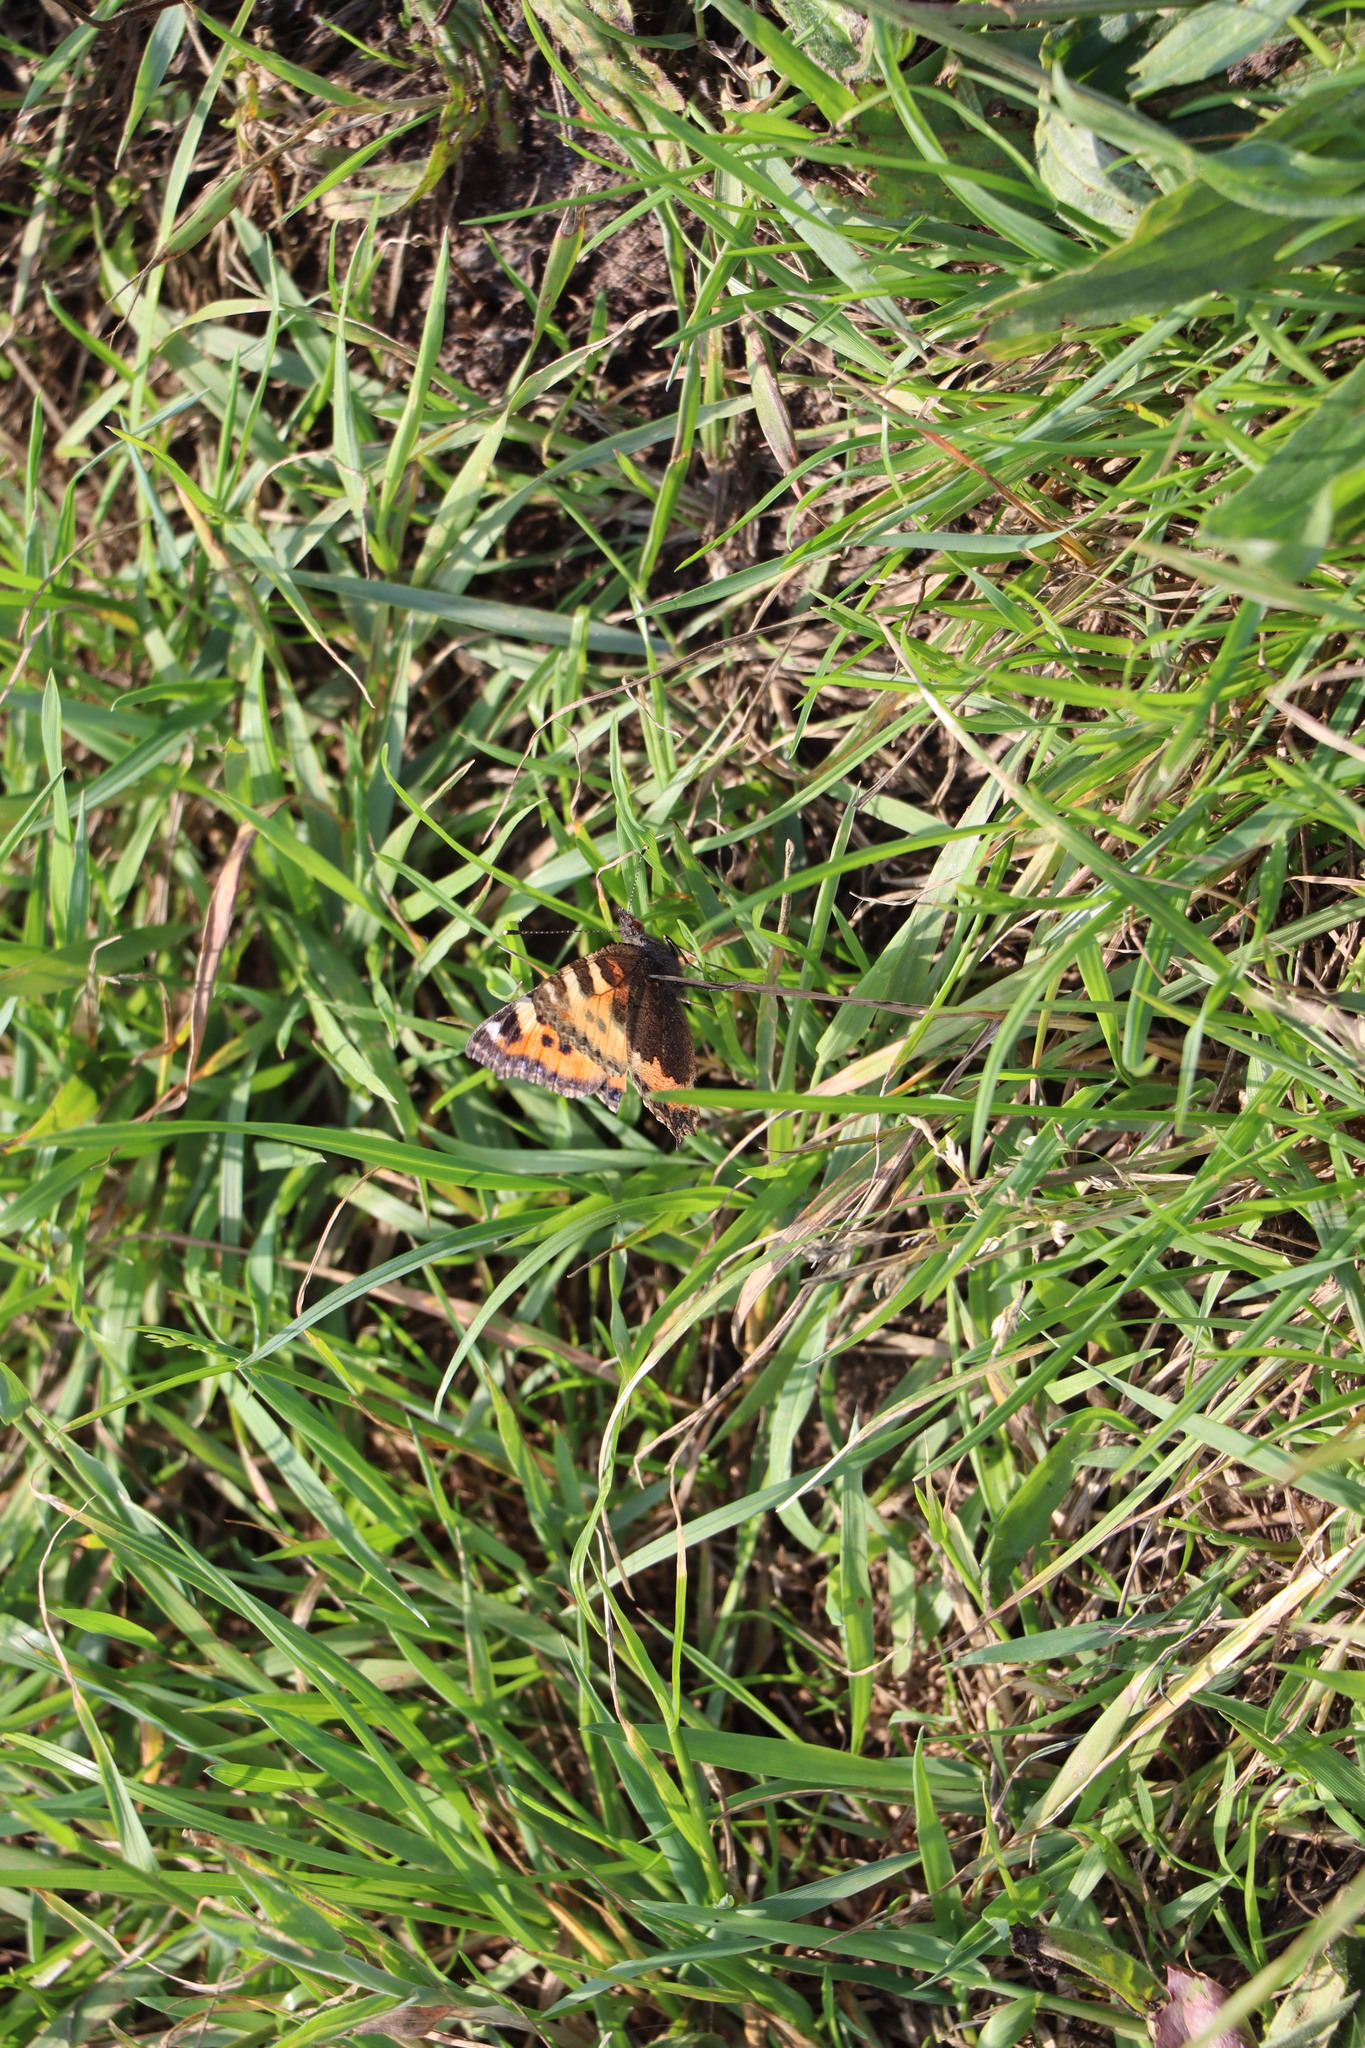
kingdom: Animalia
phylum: Arthropoda
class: Insecta
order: Lepidoptera
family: Nymphalidae
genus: Aglais
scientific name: Aglais urticae
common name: Small tortoiseshell
